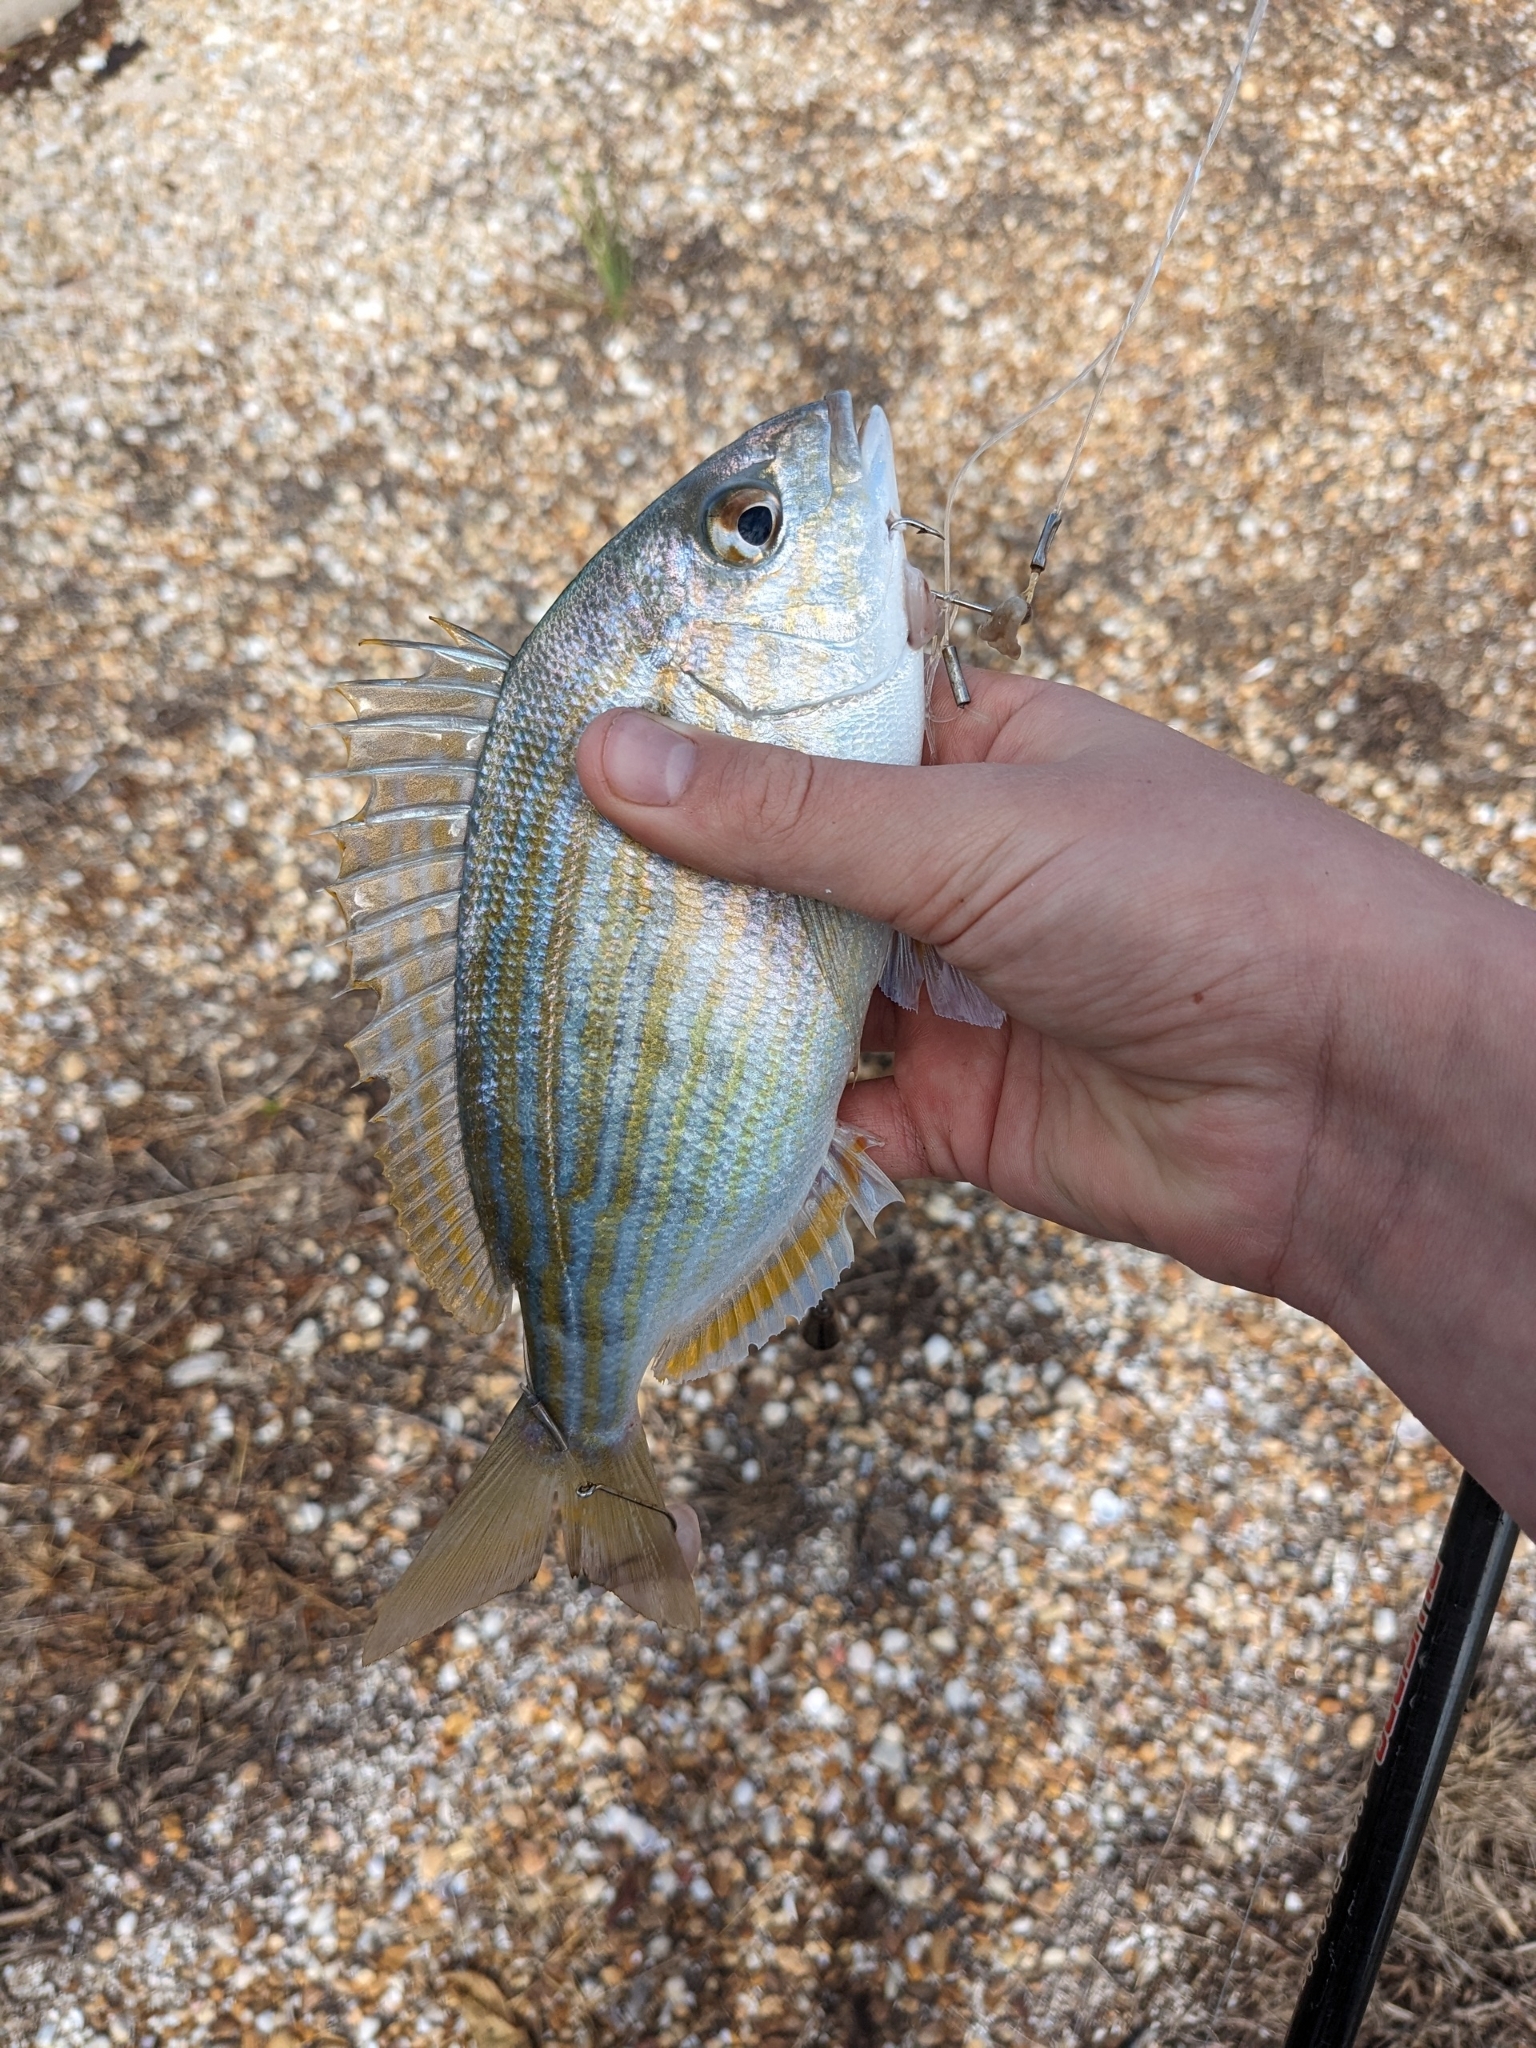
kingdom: Animalia
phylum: Chordata
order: Perciformes
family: Sparidae
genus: Lagodon
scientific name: Lagodon rhomboides
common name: Pinfish
